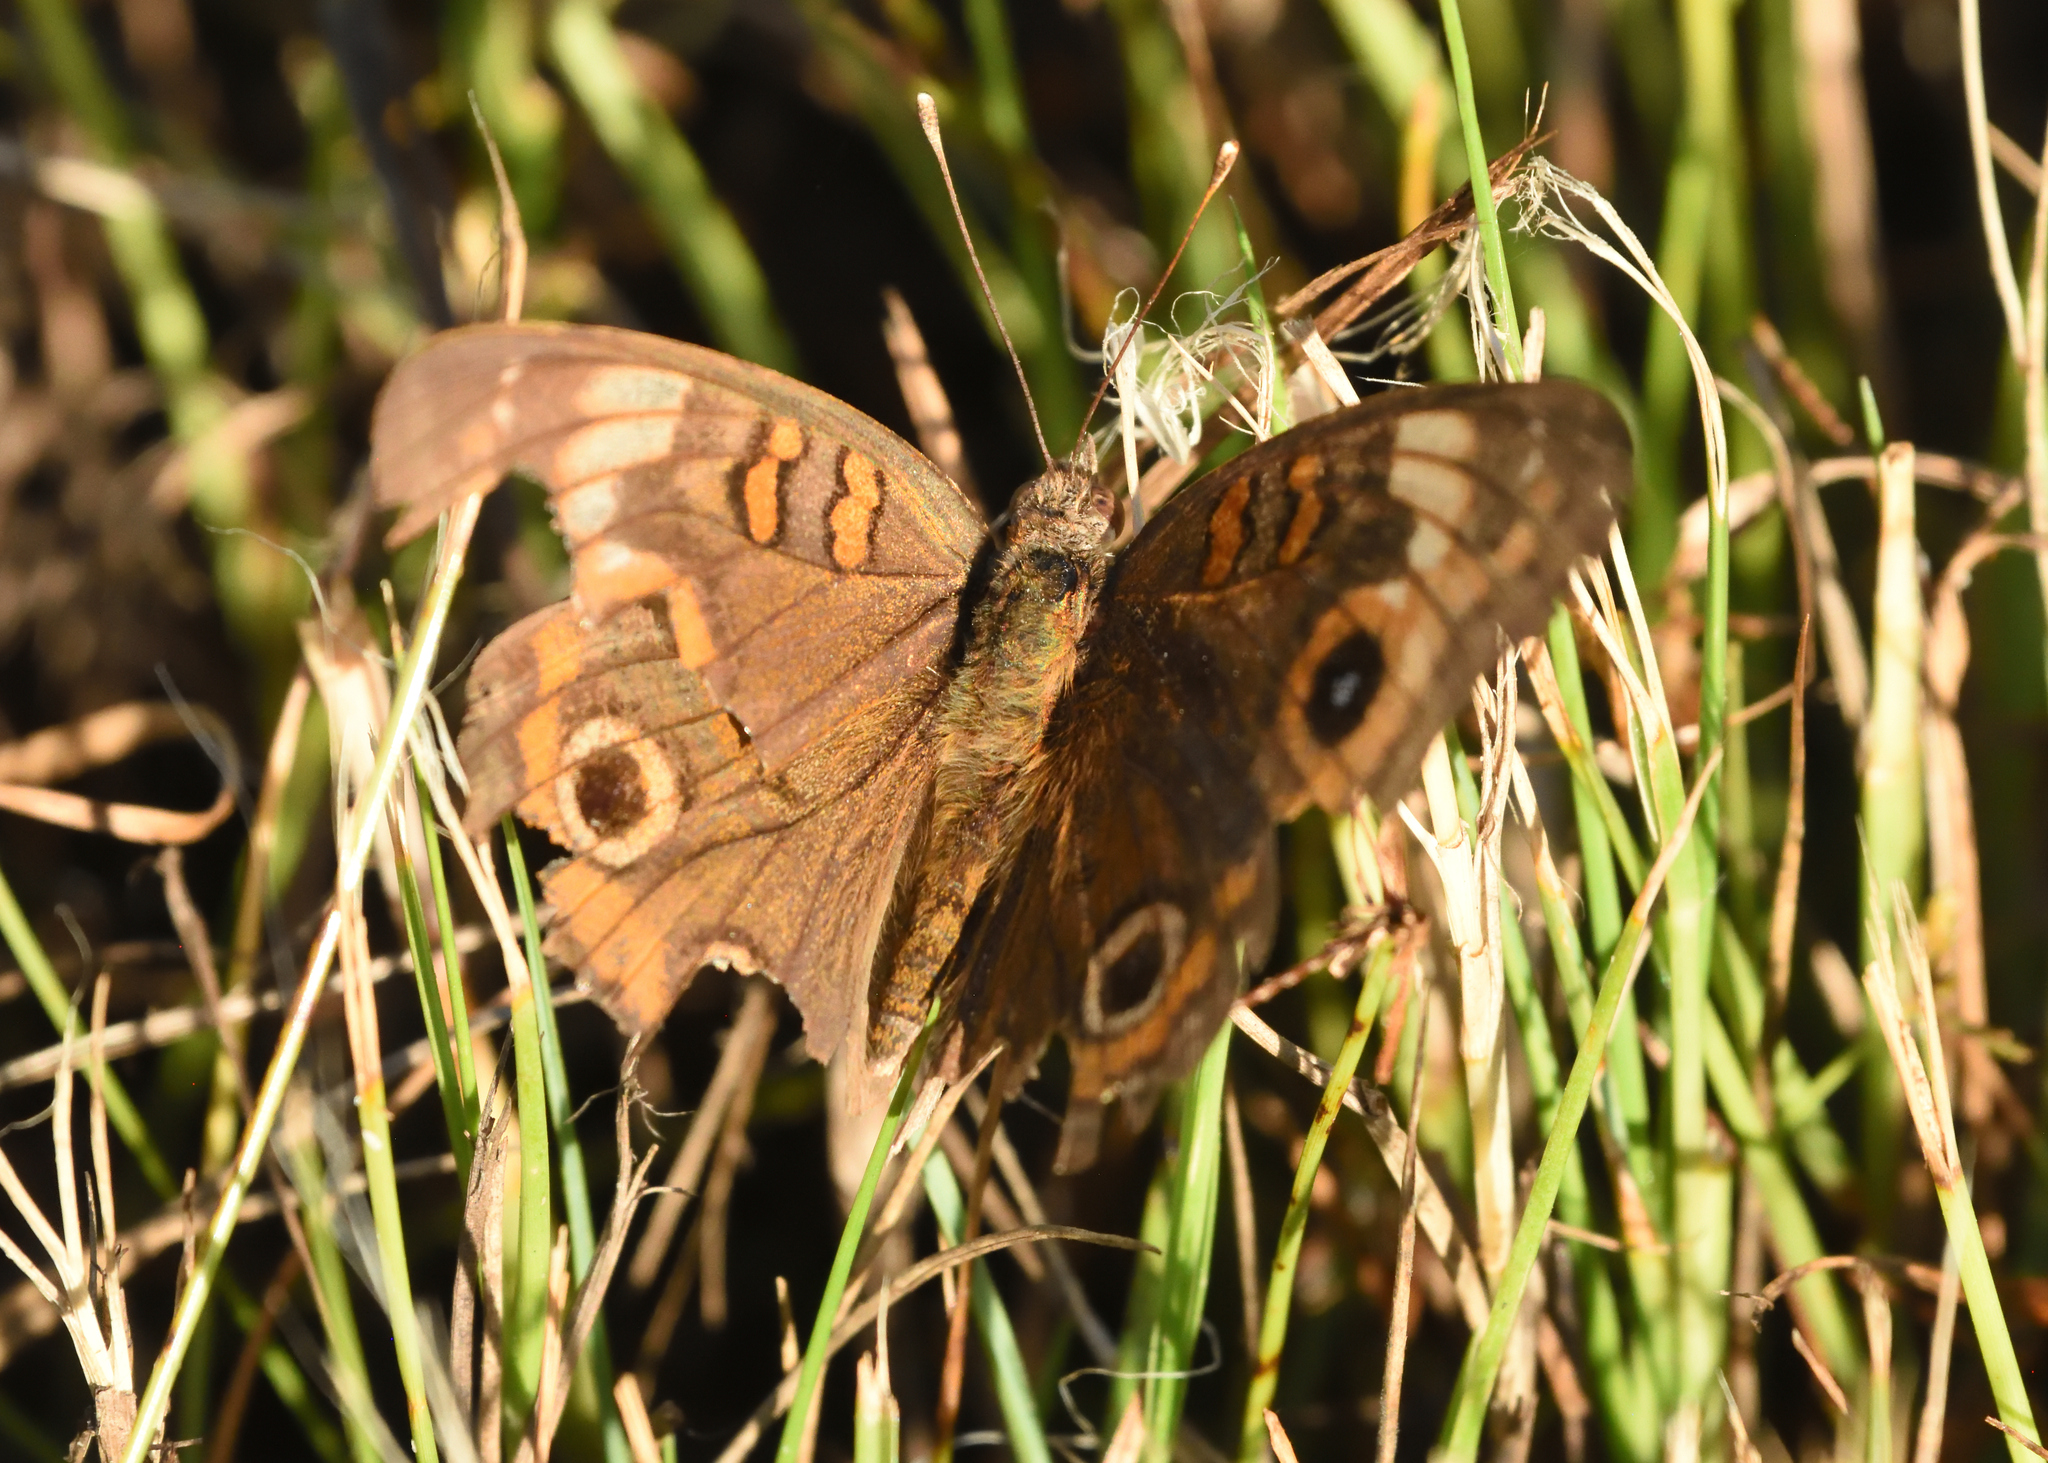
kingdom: Animalia
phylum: Arthropoda
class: Insecta
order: Lepidoptera
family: Nymphalidae
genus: Junonia
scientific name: Junonia neildi
